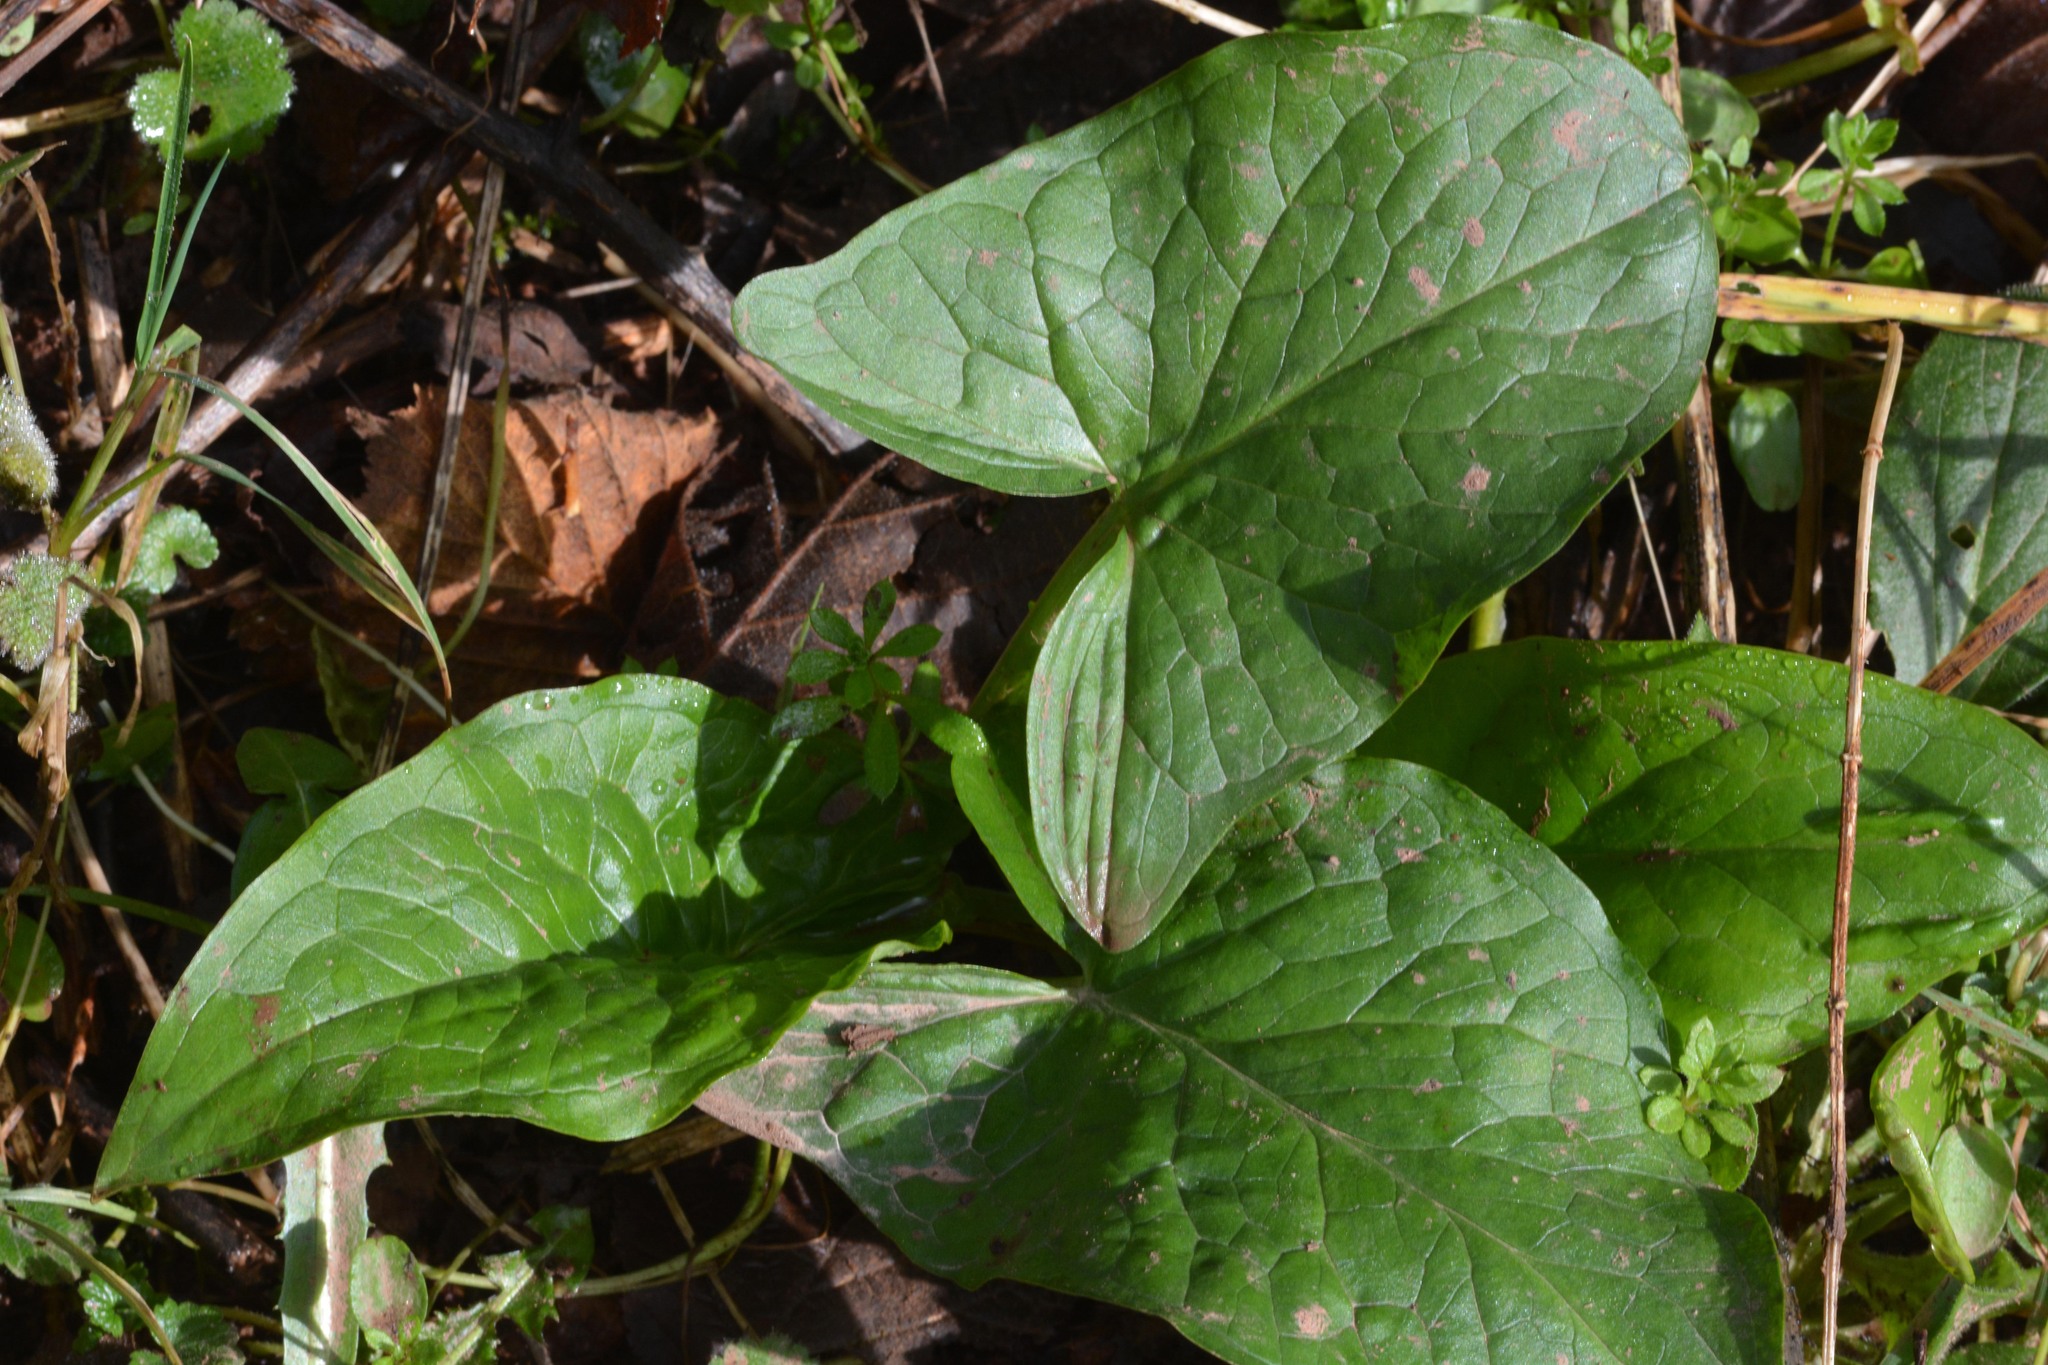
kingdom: Plantae
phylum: Tracheophyta
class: Liliopsida
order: Alismatales
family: Araceae
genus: Arum
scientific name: Arum maculatum
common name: Lords-and-ladies
